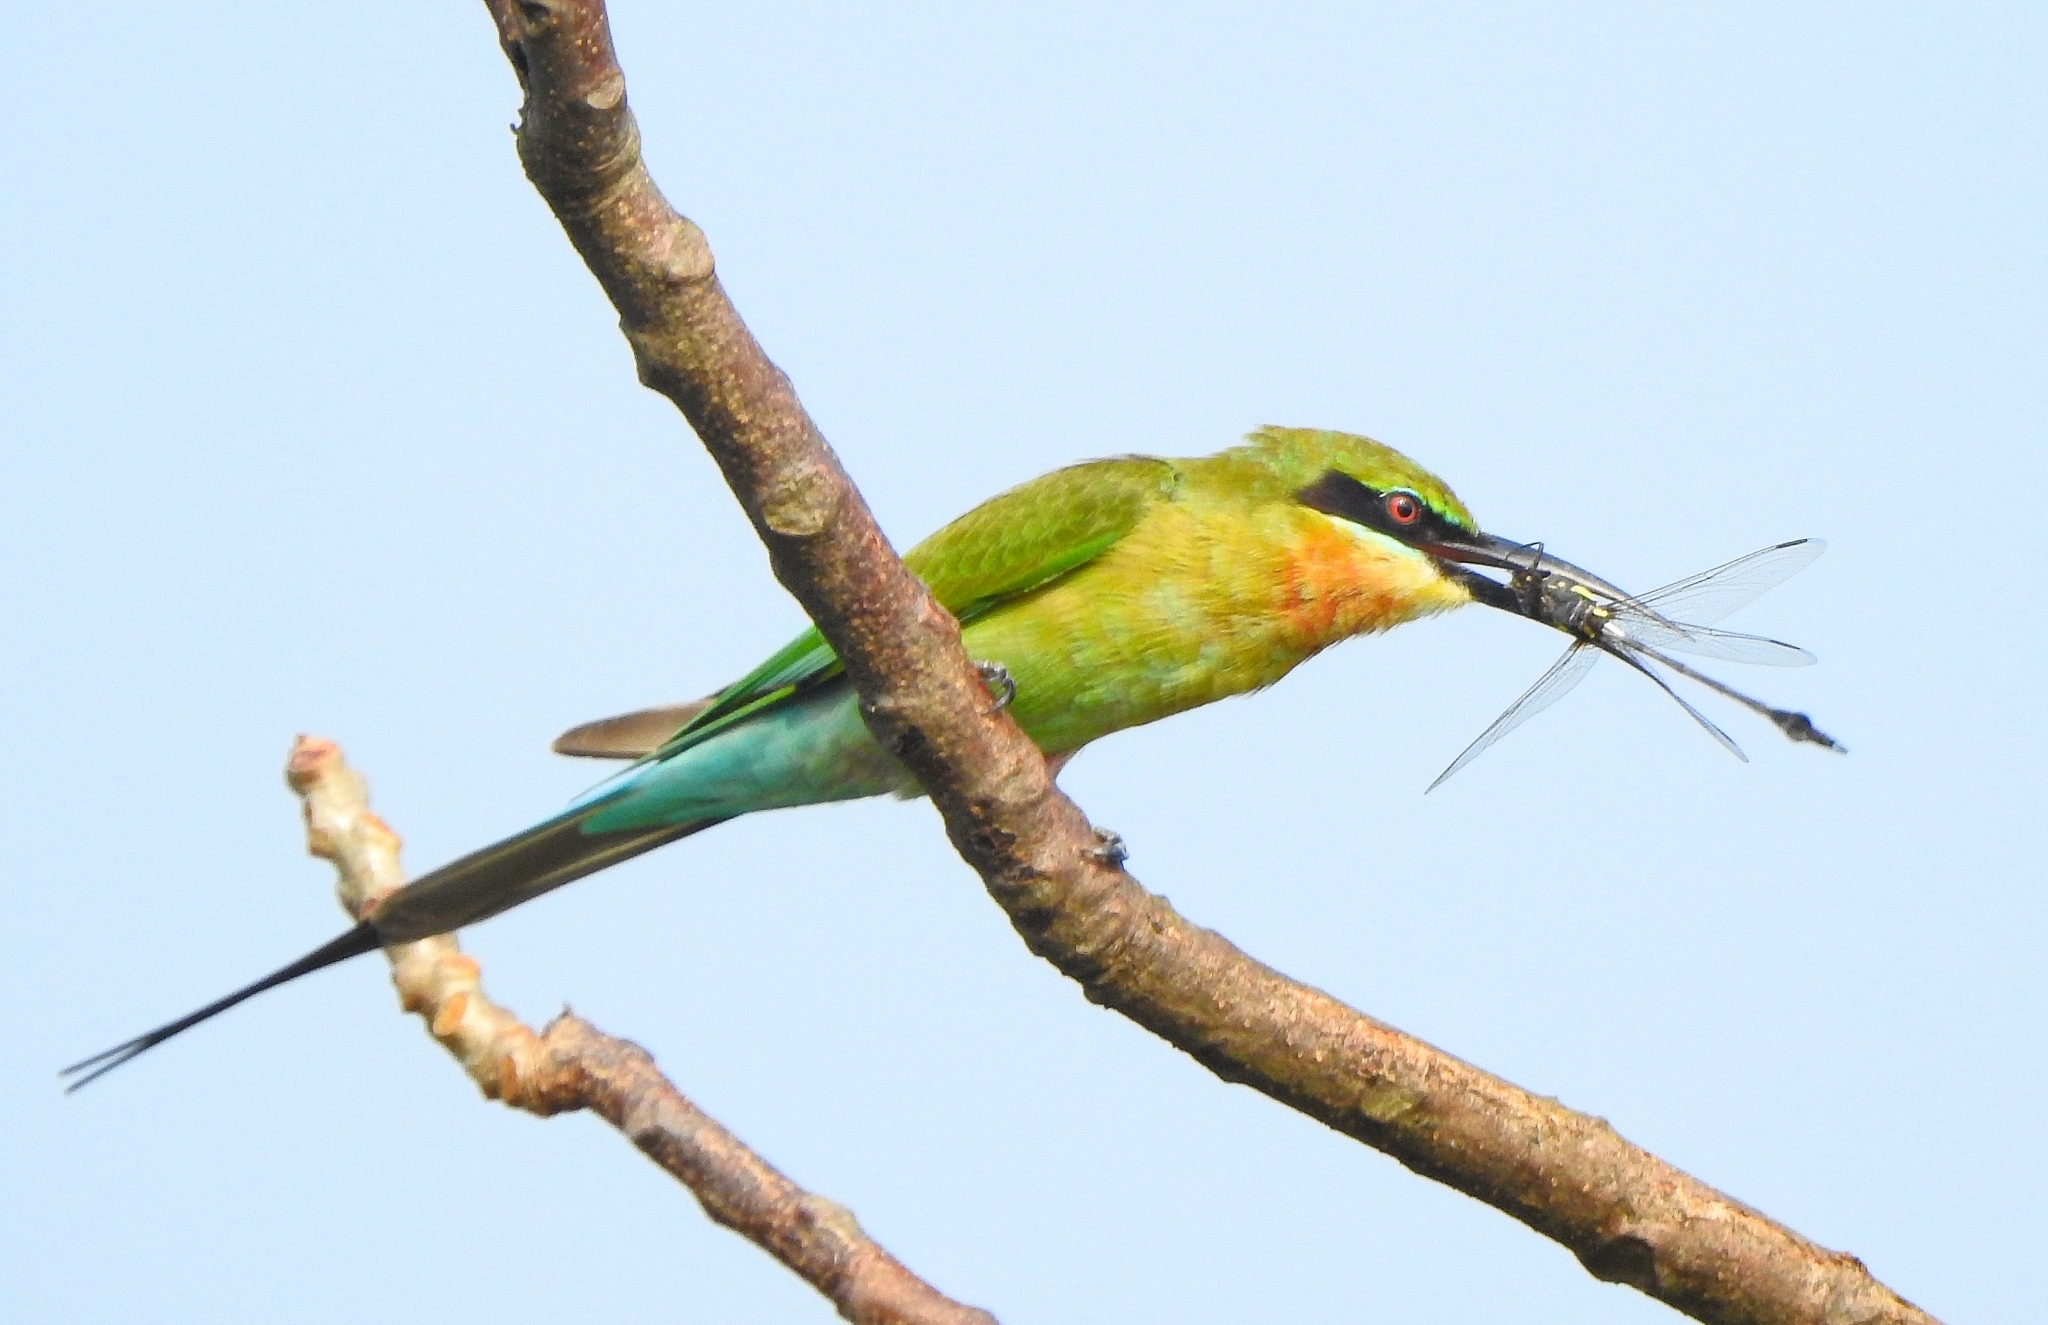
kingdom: Animalia
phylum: Chordata
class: Aves
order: Coraciiformes
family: Meropidae
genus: Merops
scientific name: Merops philippinus
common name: Blue-tailed bee-eater
